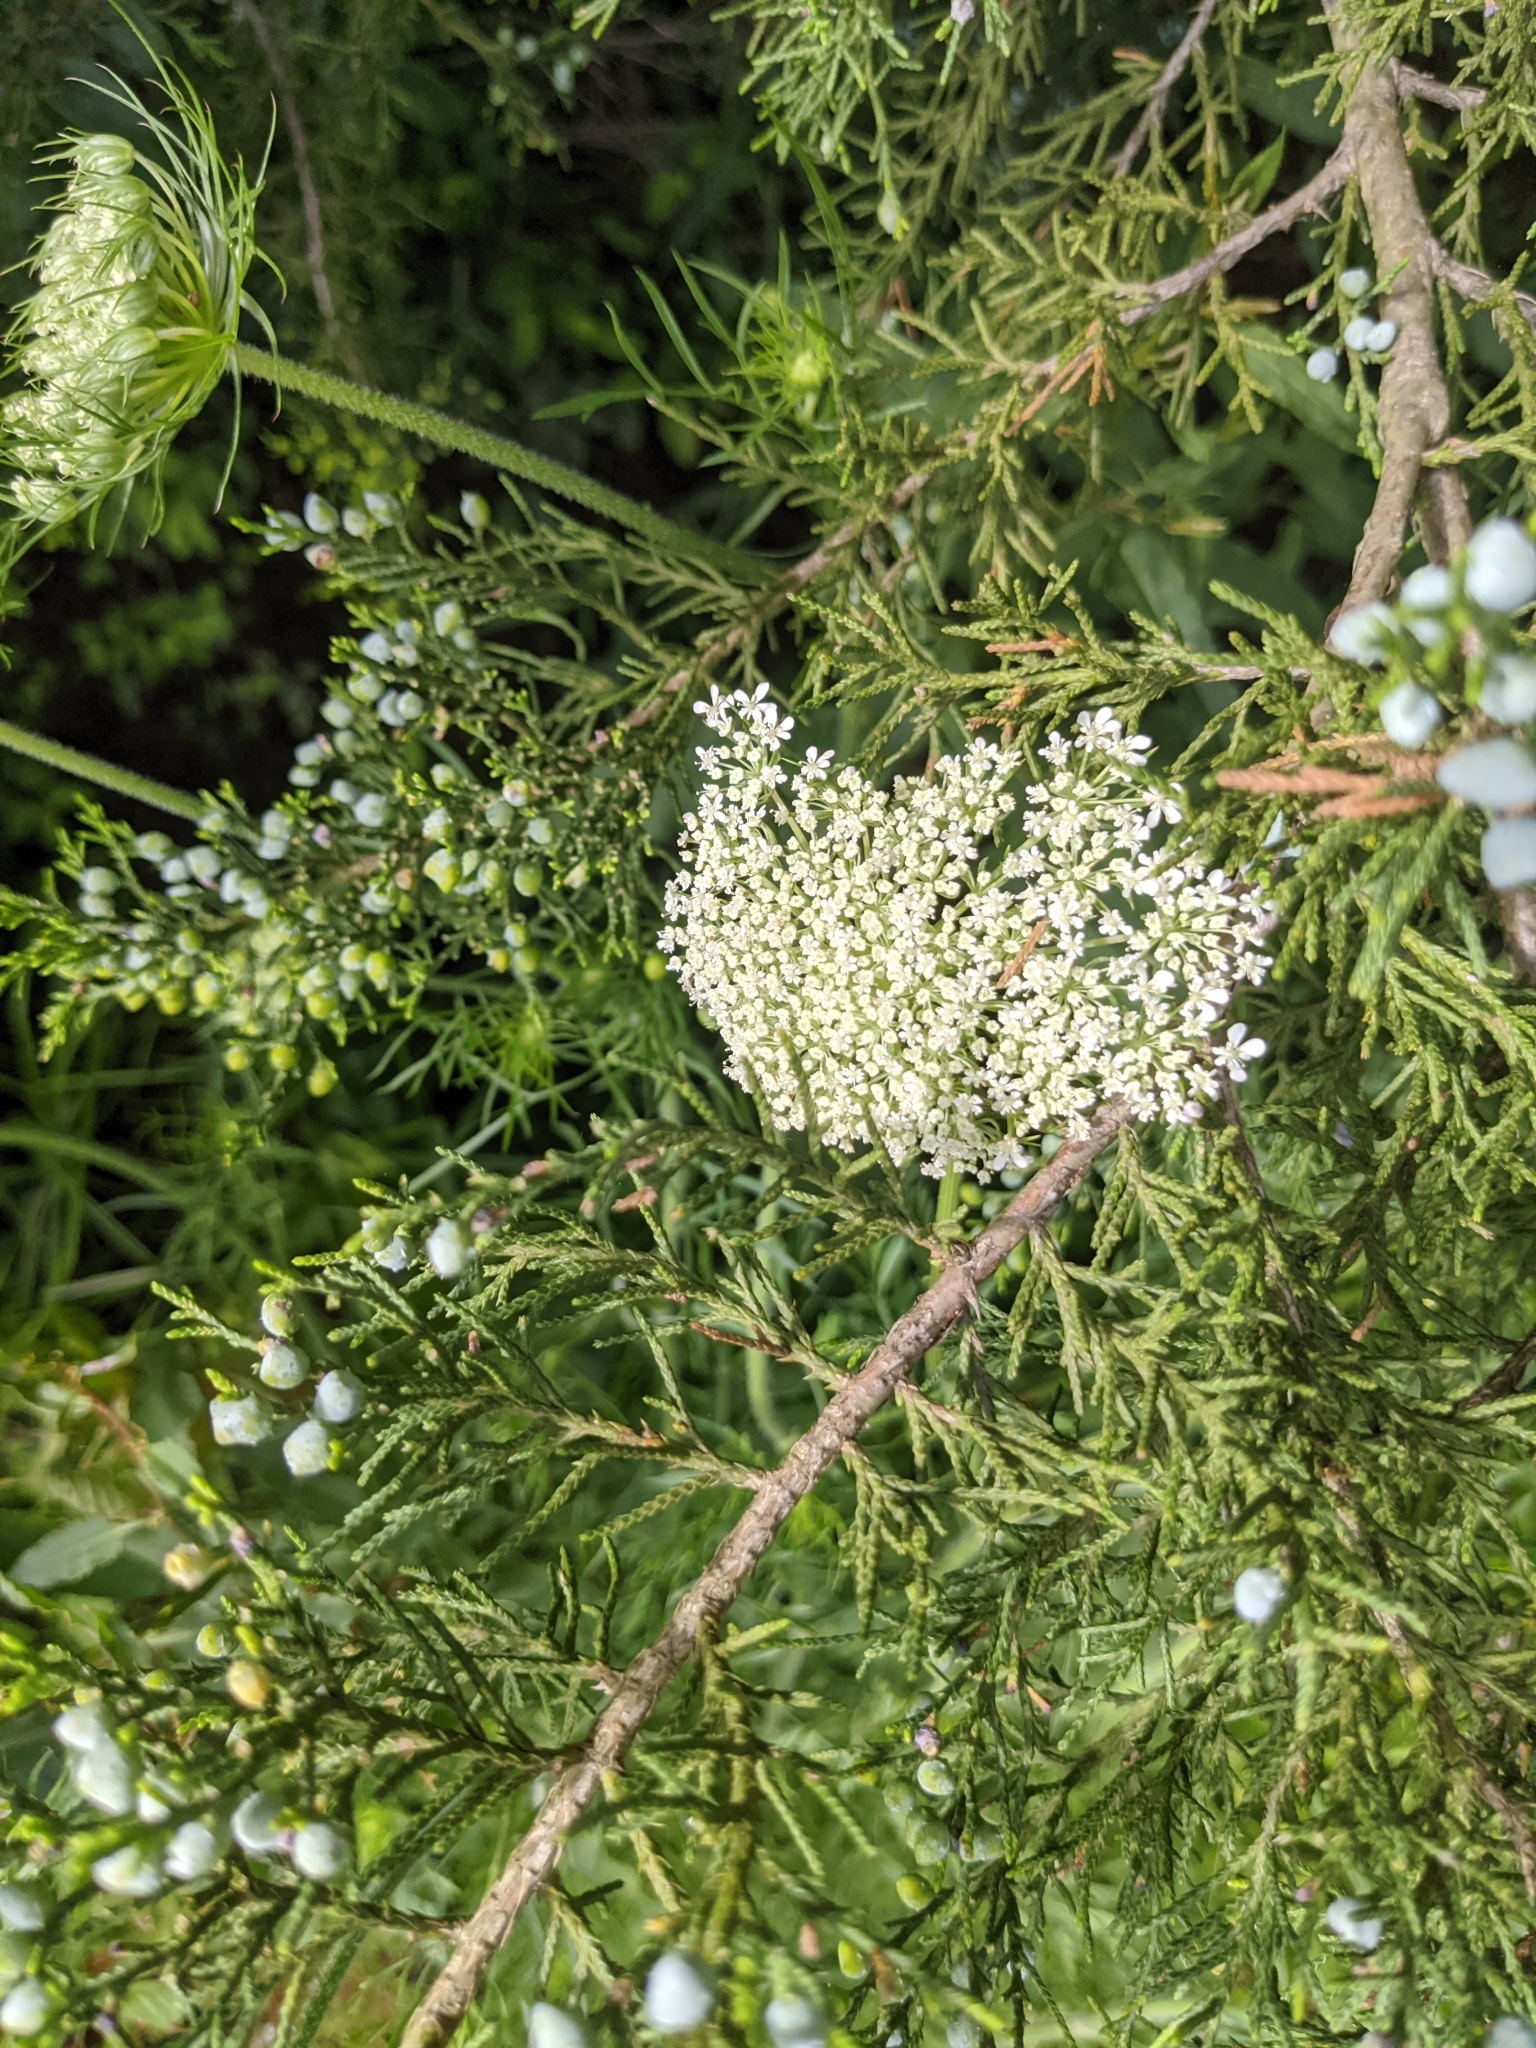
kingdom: Plantae
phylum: Tracheophyta
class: Magnoliopsida
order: Apiales
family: Apiaceae
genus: Daucus
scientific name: Daucus carota
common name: Wild carrot
